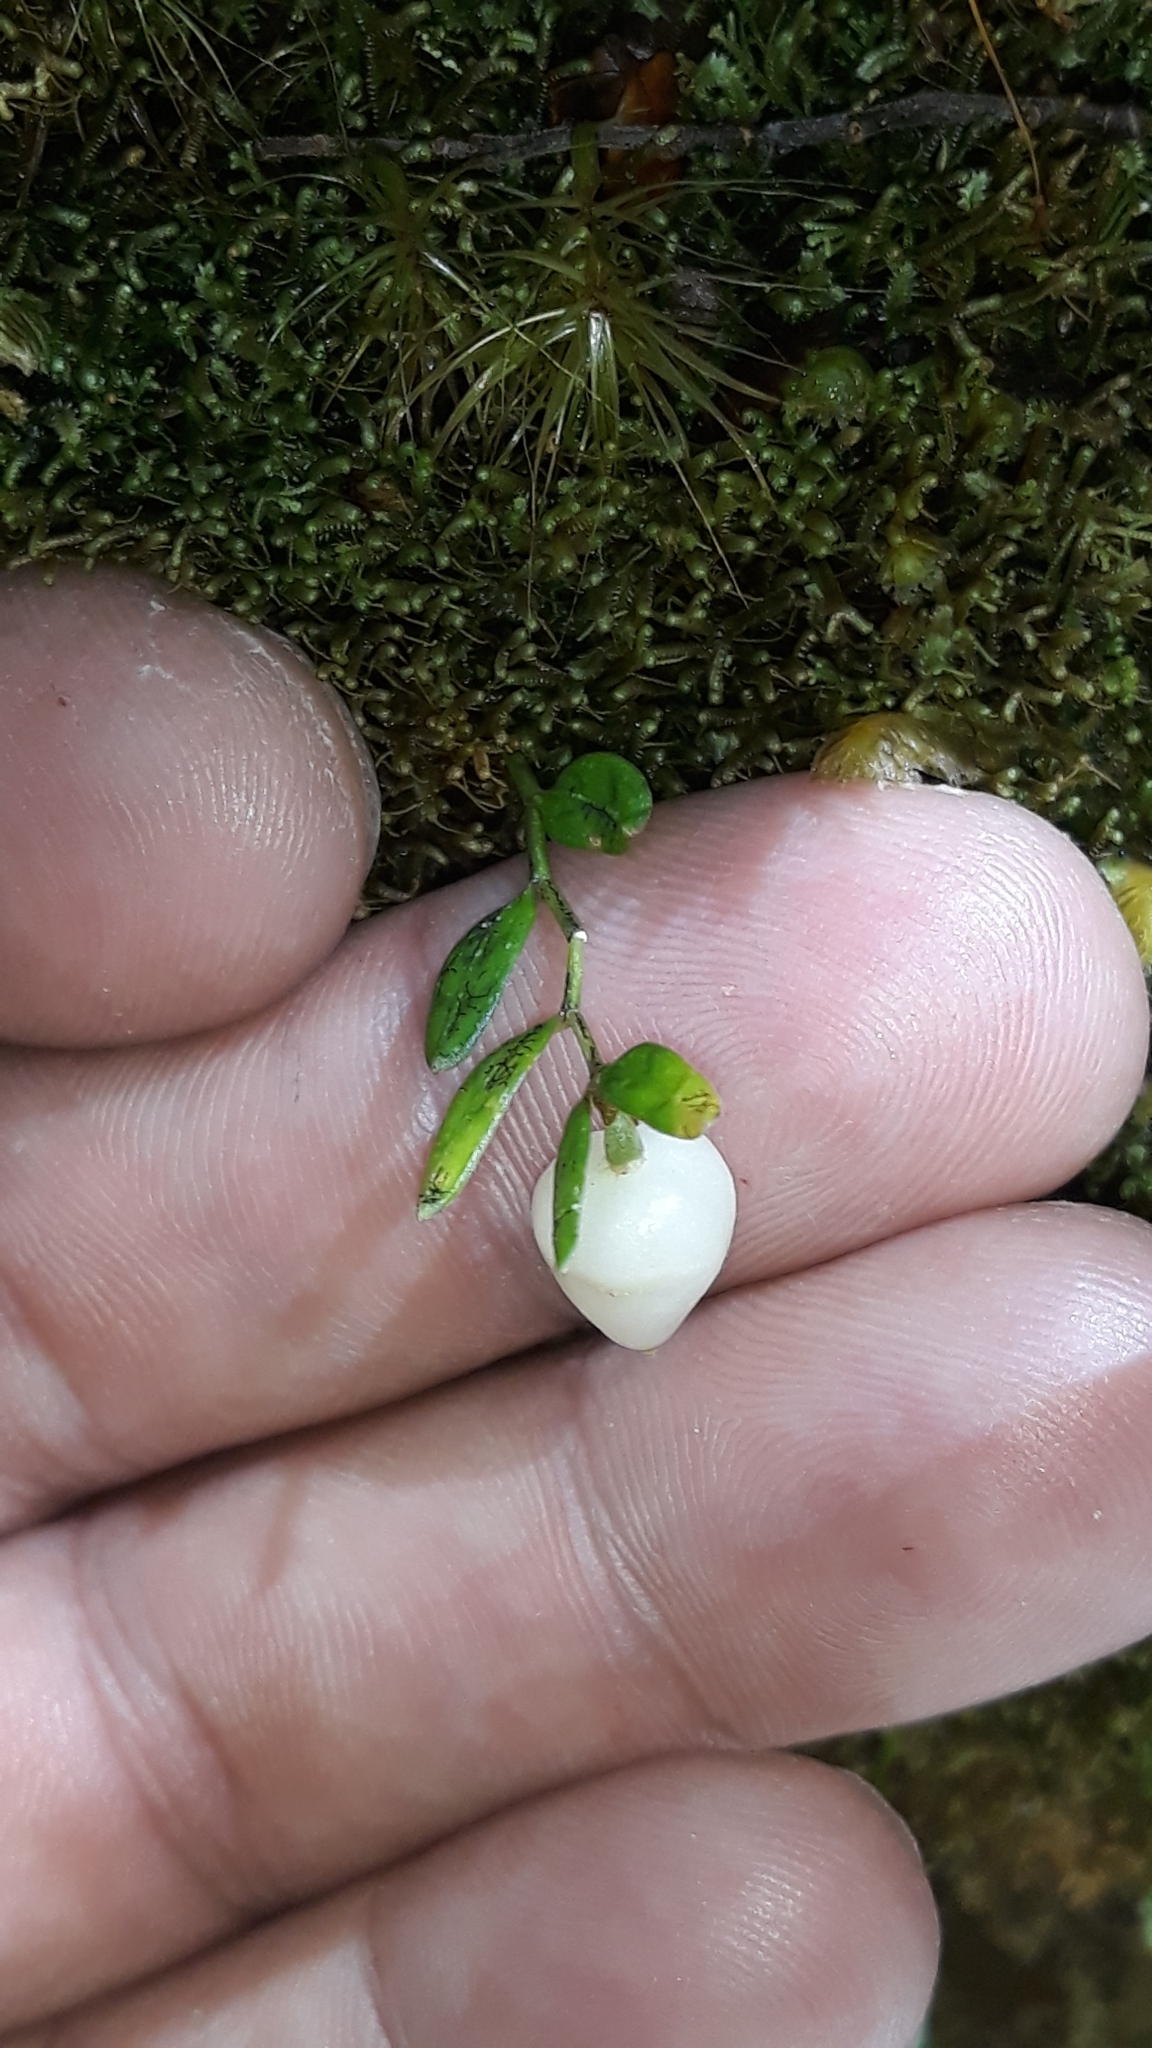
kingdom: Plantae
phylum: Tracheophyta
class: Liliopsida
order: Liliales
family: Alstroemeriaceae
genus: Luzuriaga
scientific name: Luzuriaga parviflora
